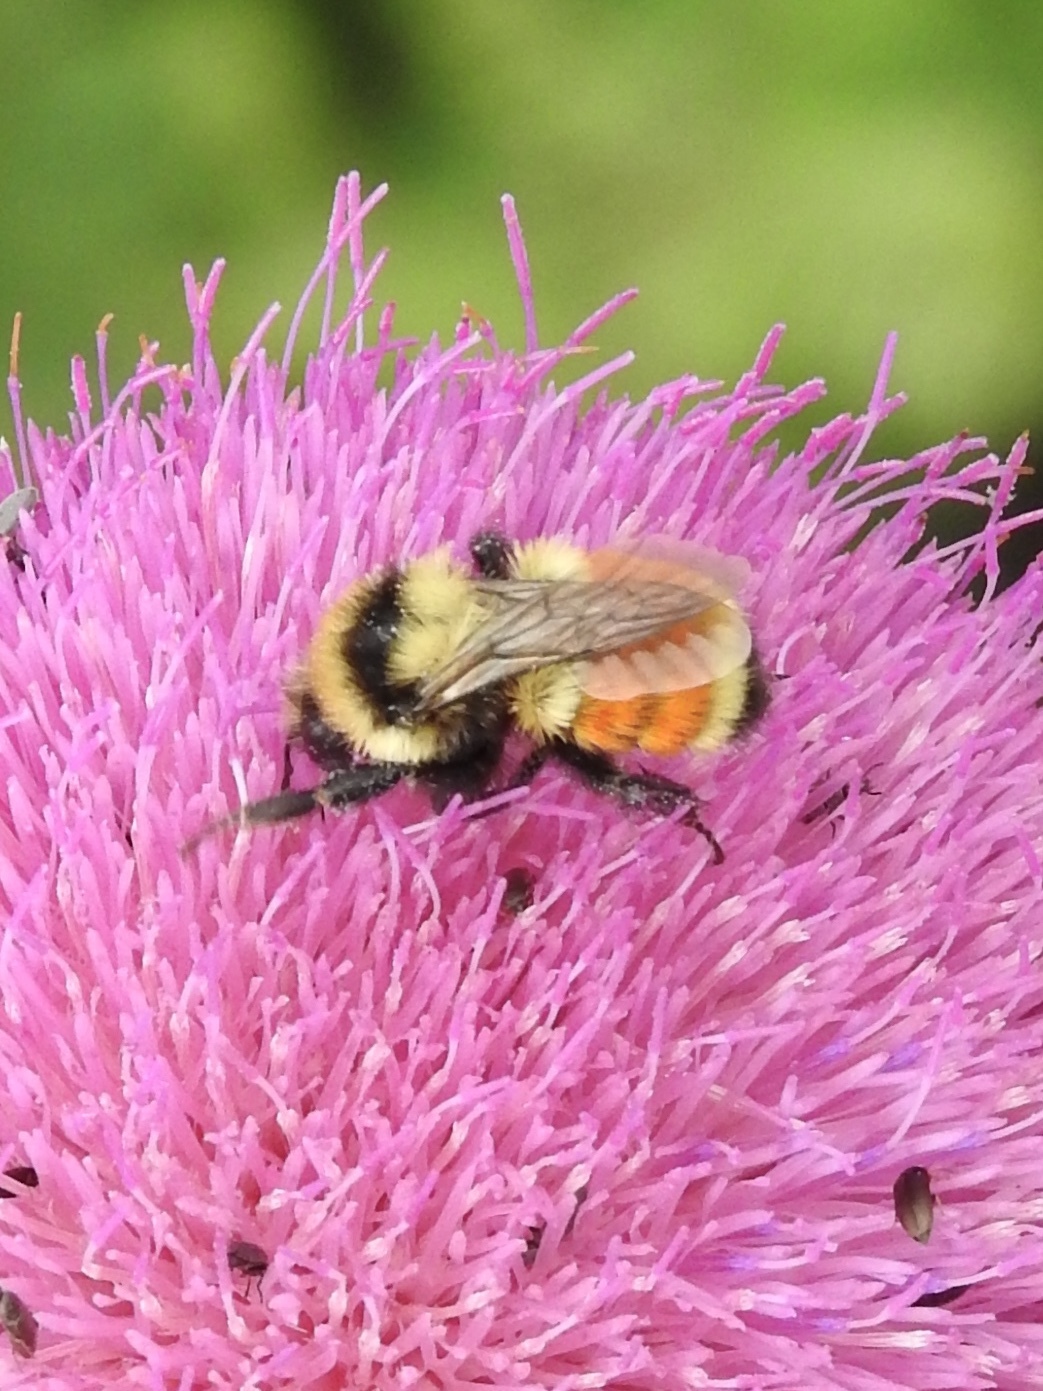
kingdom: Animalia
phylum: Arthropoda
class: Insecta
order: Hymenoptera
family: Apidae
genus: Bombus
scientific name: Bombus huntii
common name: Hunt bumble bee
